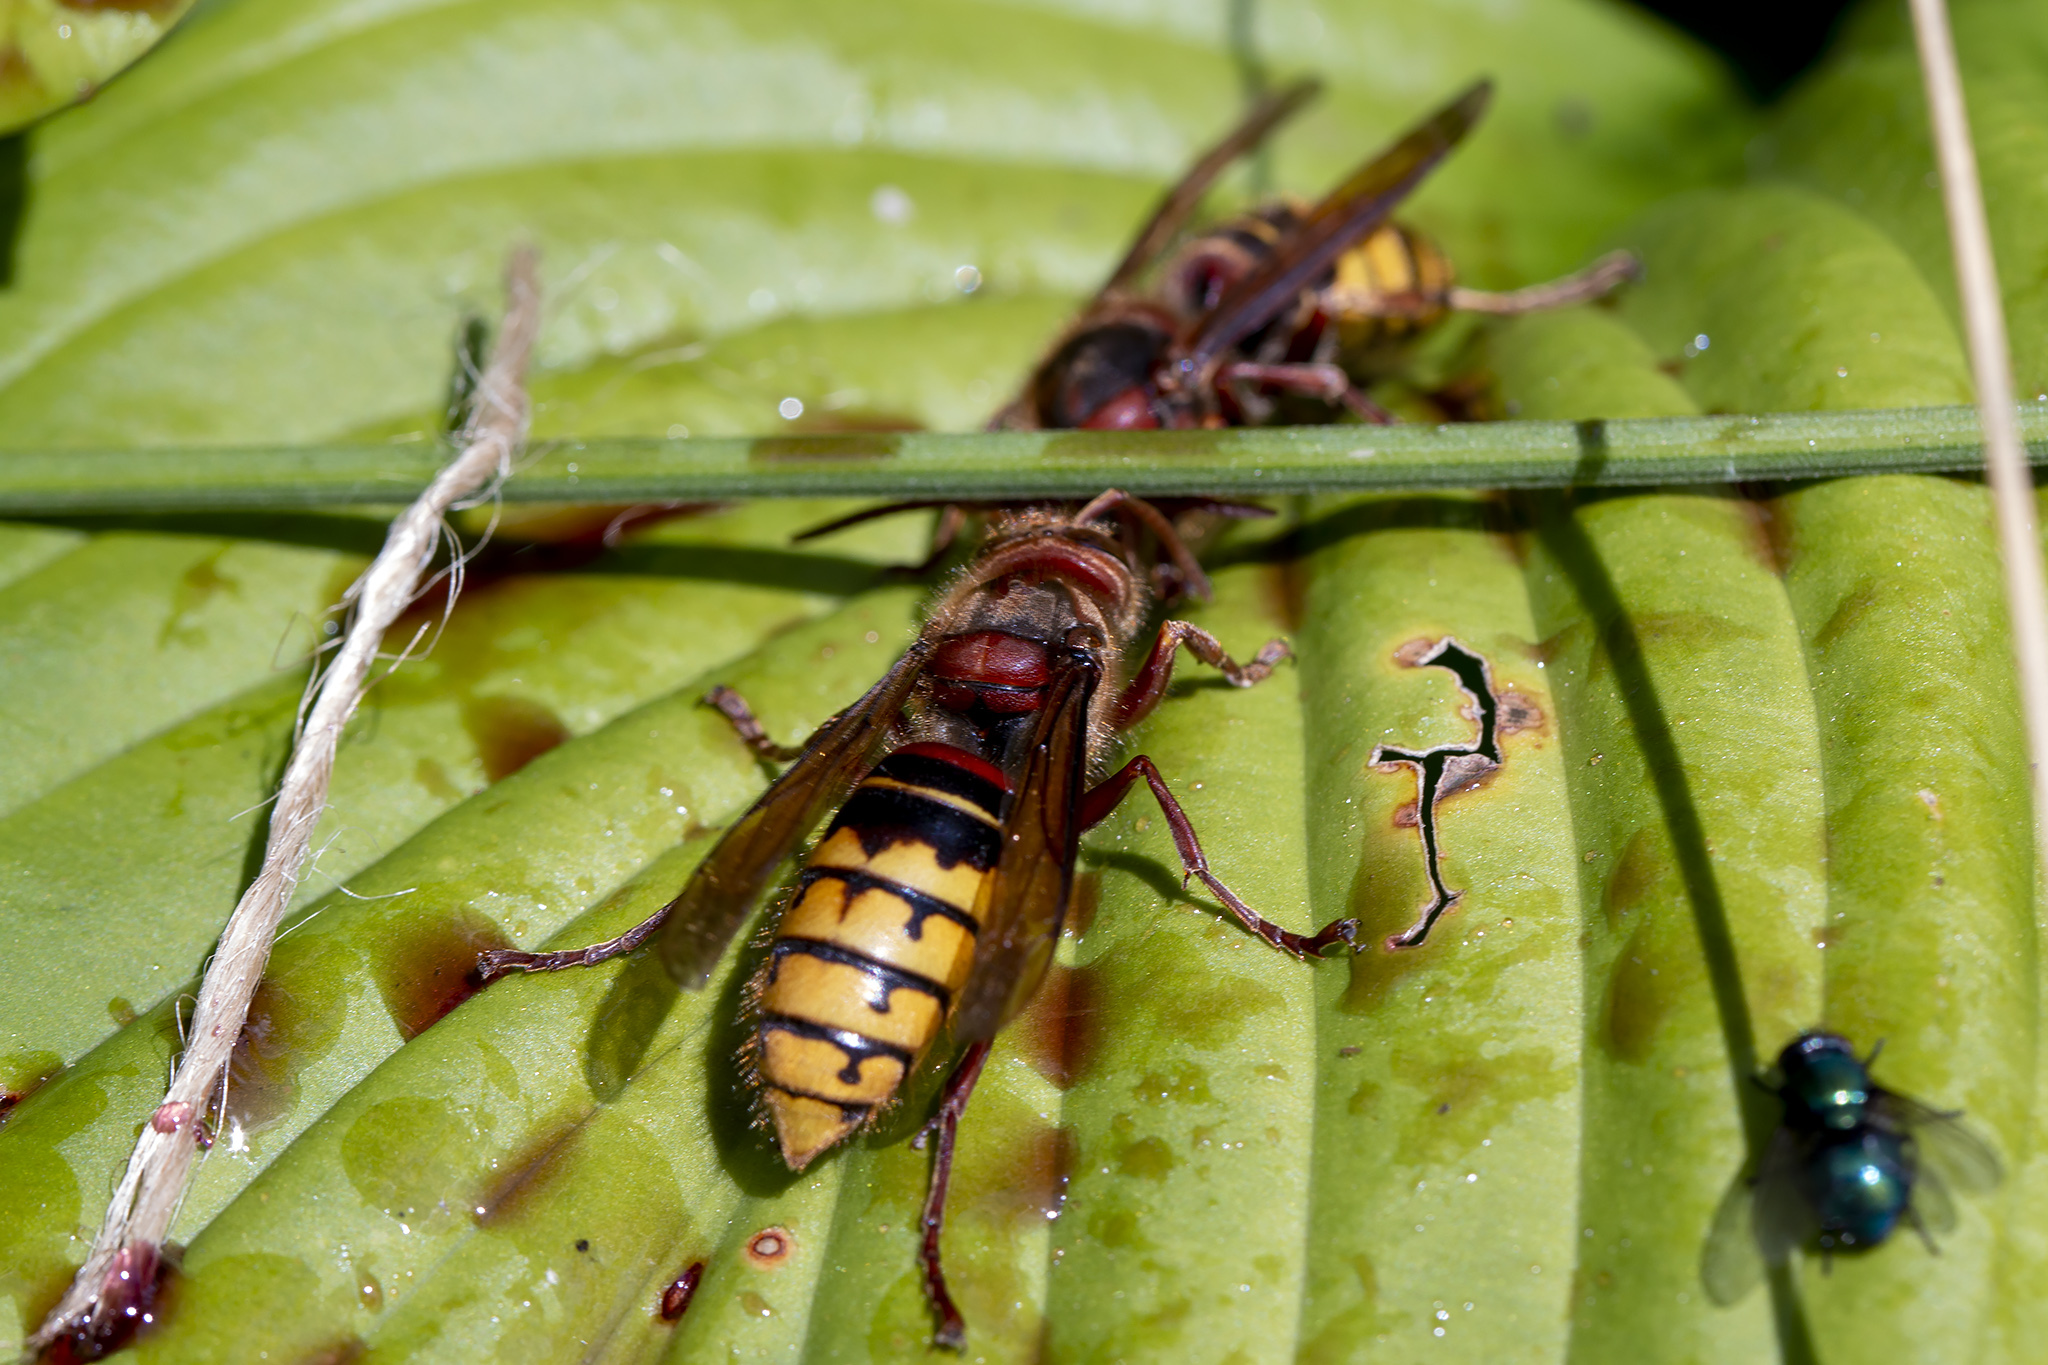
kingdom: Animalia
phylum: Arthropoda
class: Insecta
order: Hymenoptera
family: Vespidae
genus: Vespa
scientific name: Vespa crabro
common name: Hornet
